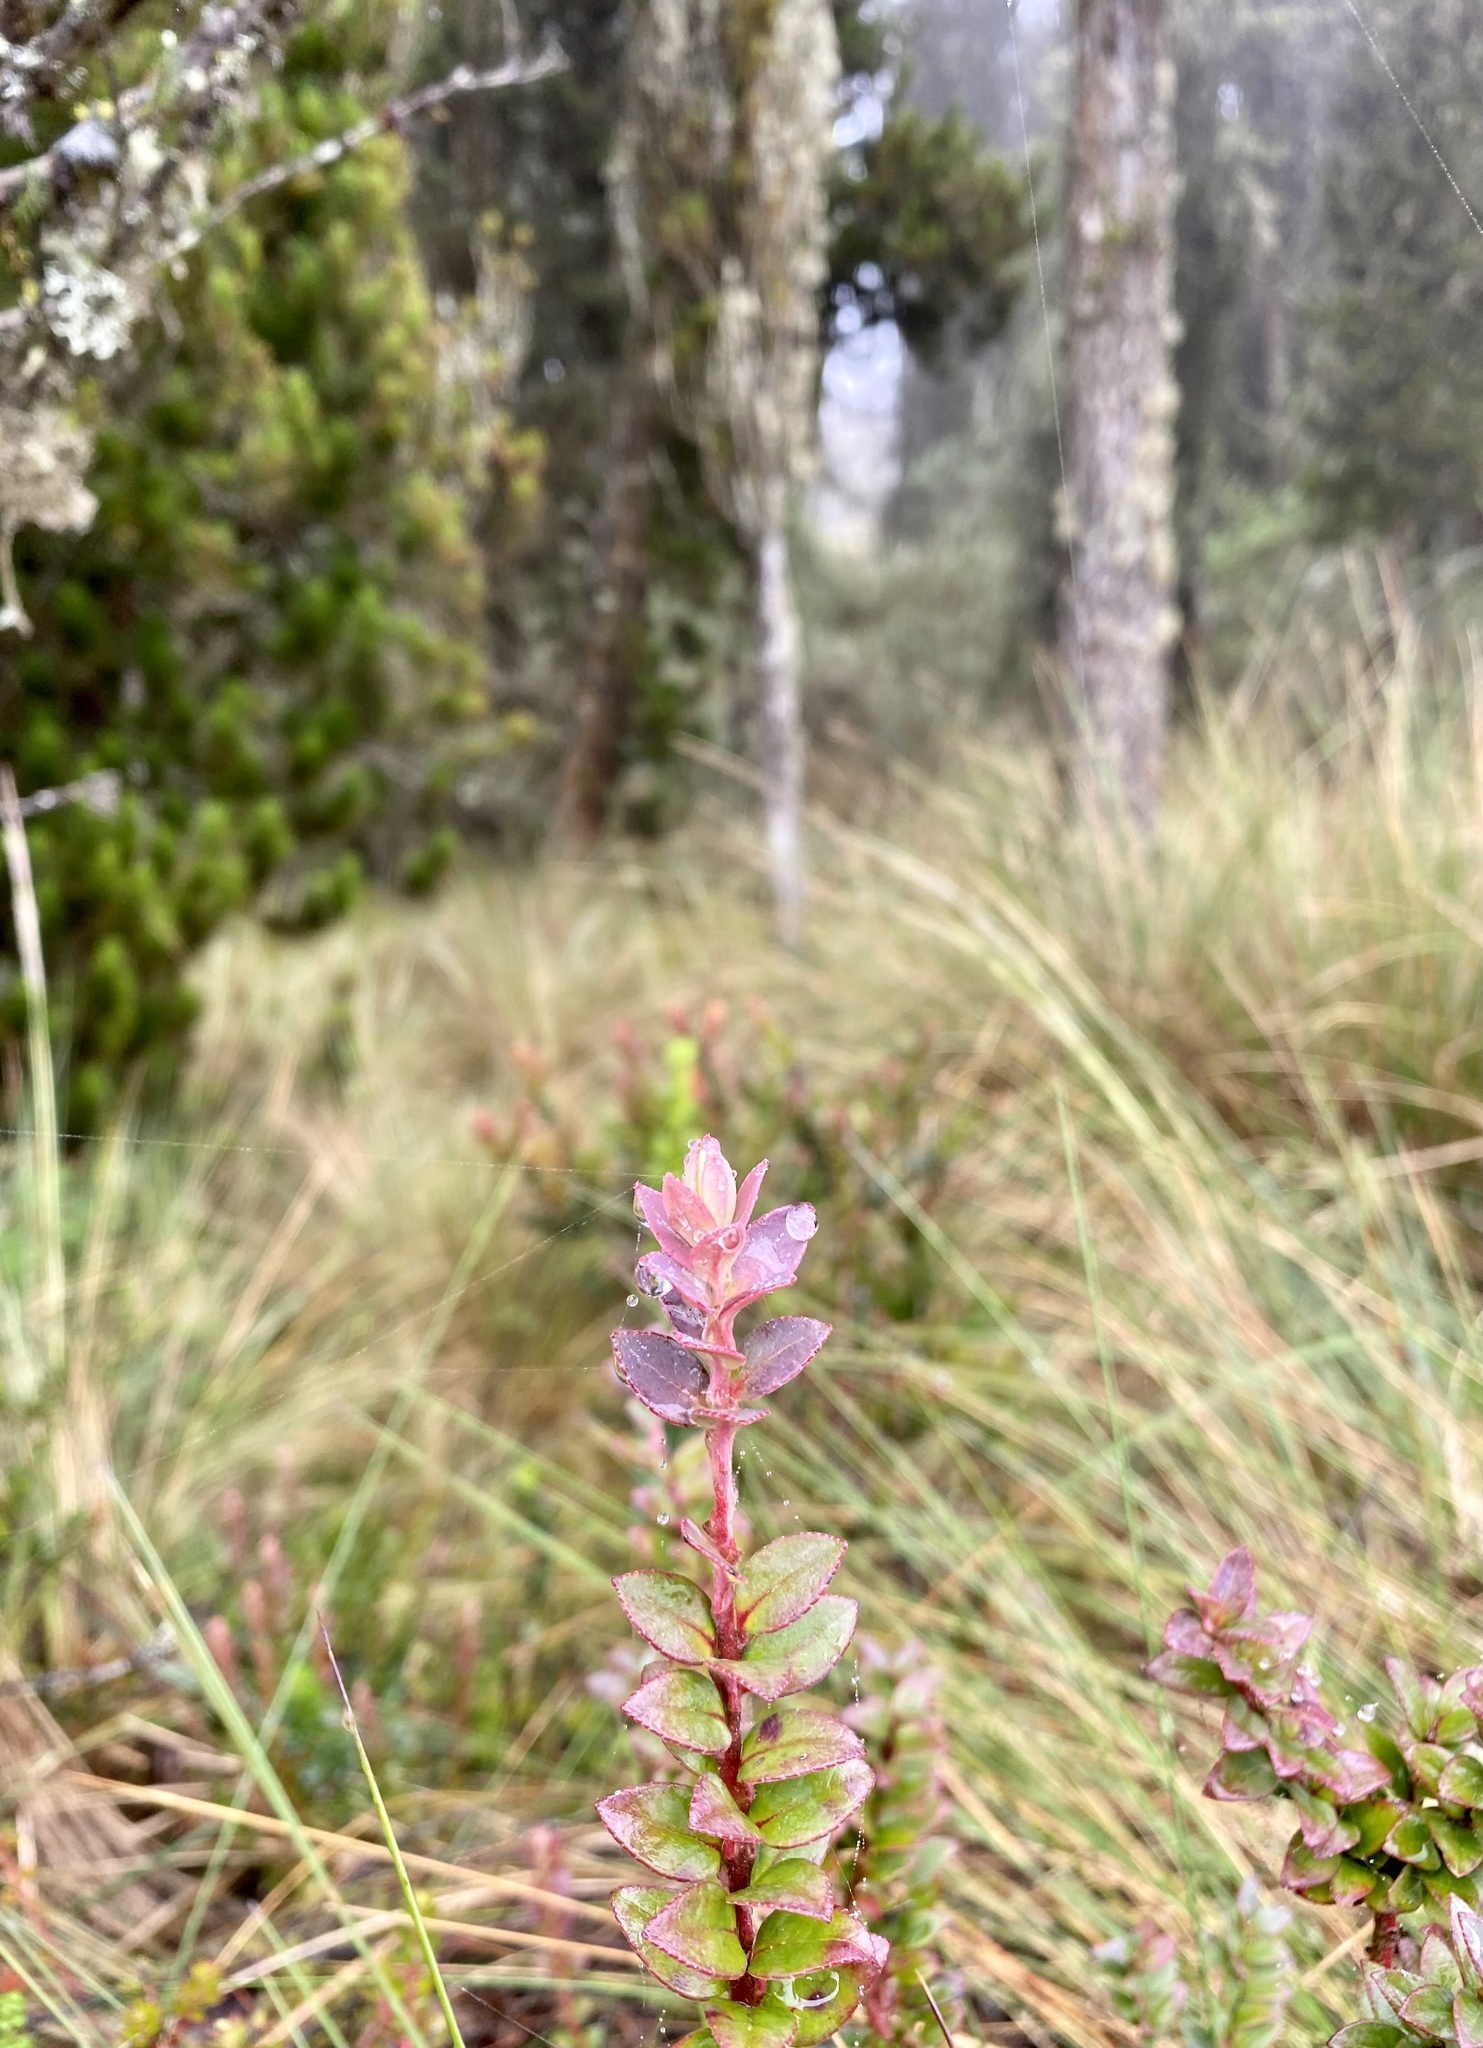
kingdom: Plantae
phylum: Tracheophyta
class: Magnoliopsida
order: Ericales
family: Ericaceae
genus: Vaccinium
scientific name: Vaccinium floribundum
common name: Colombian blueberry
